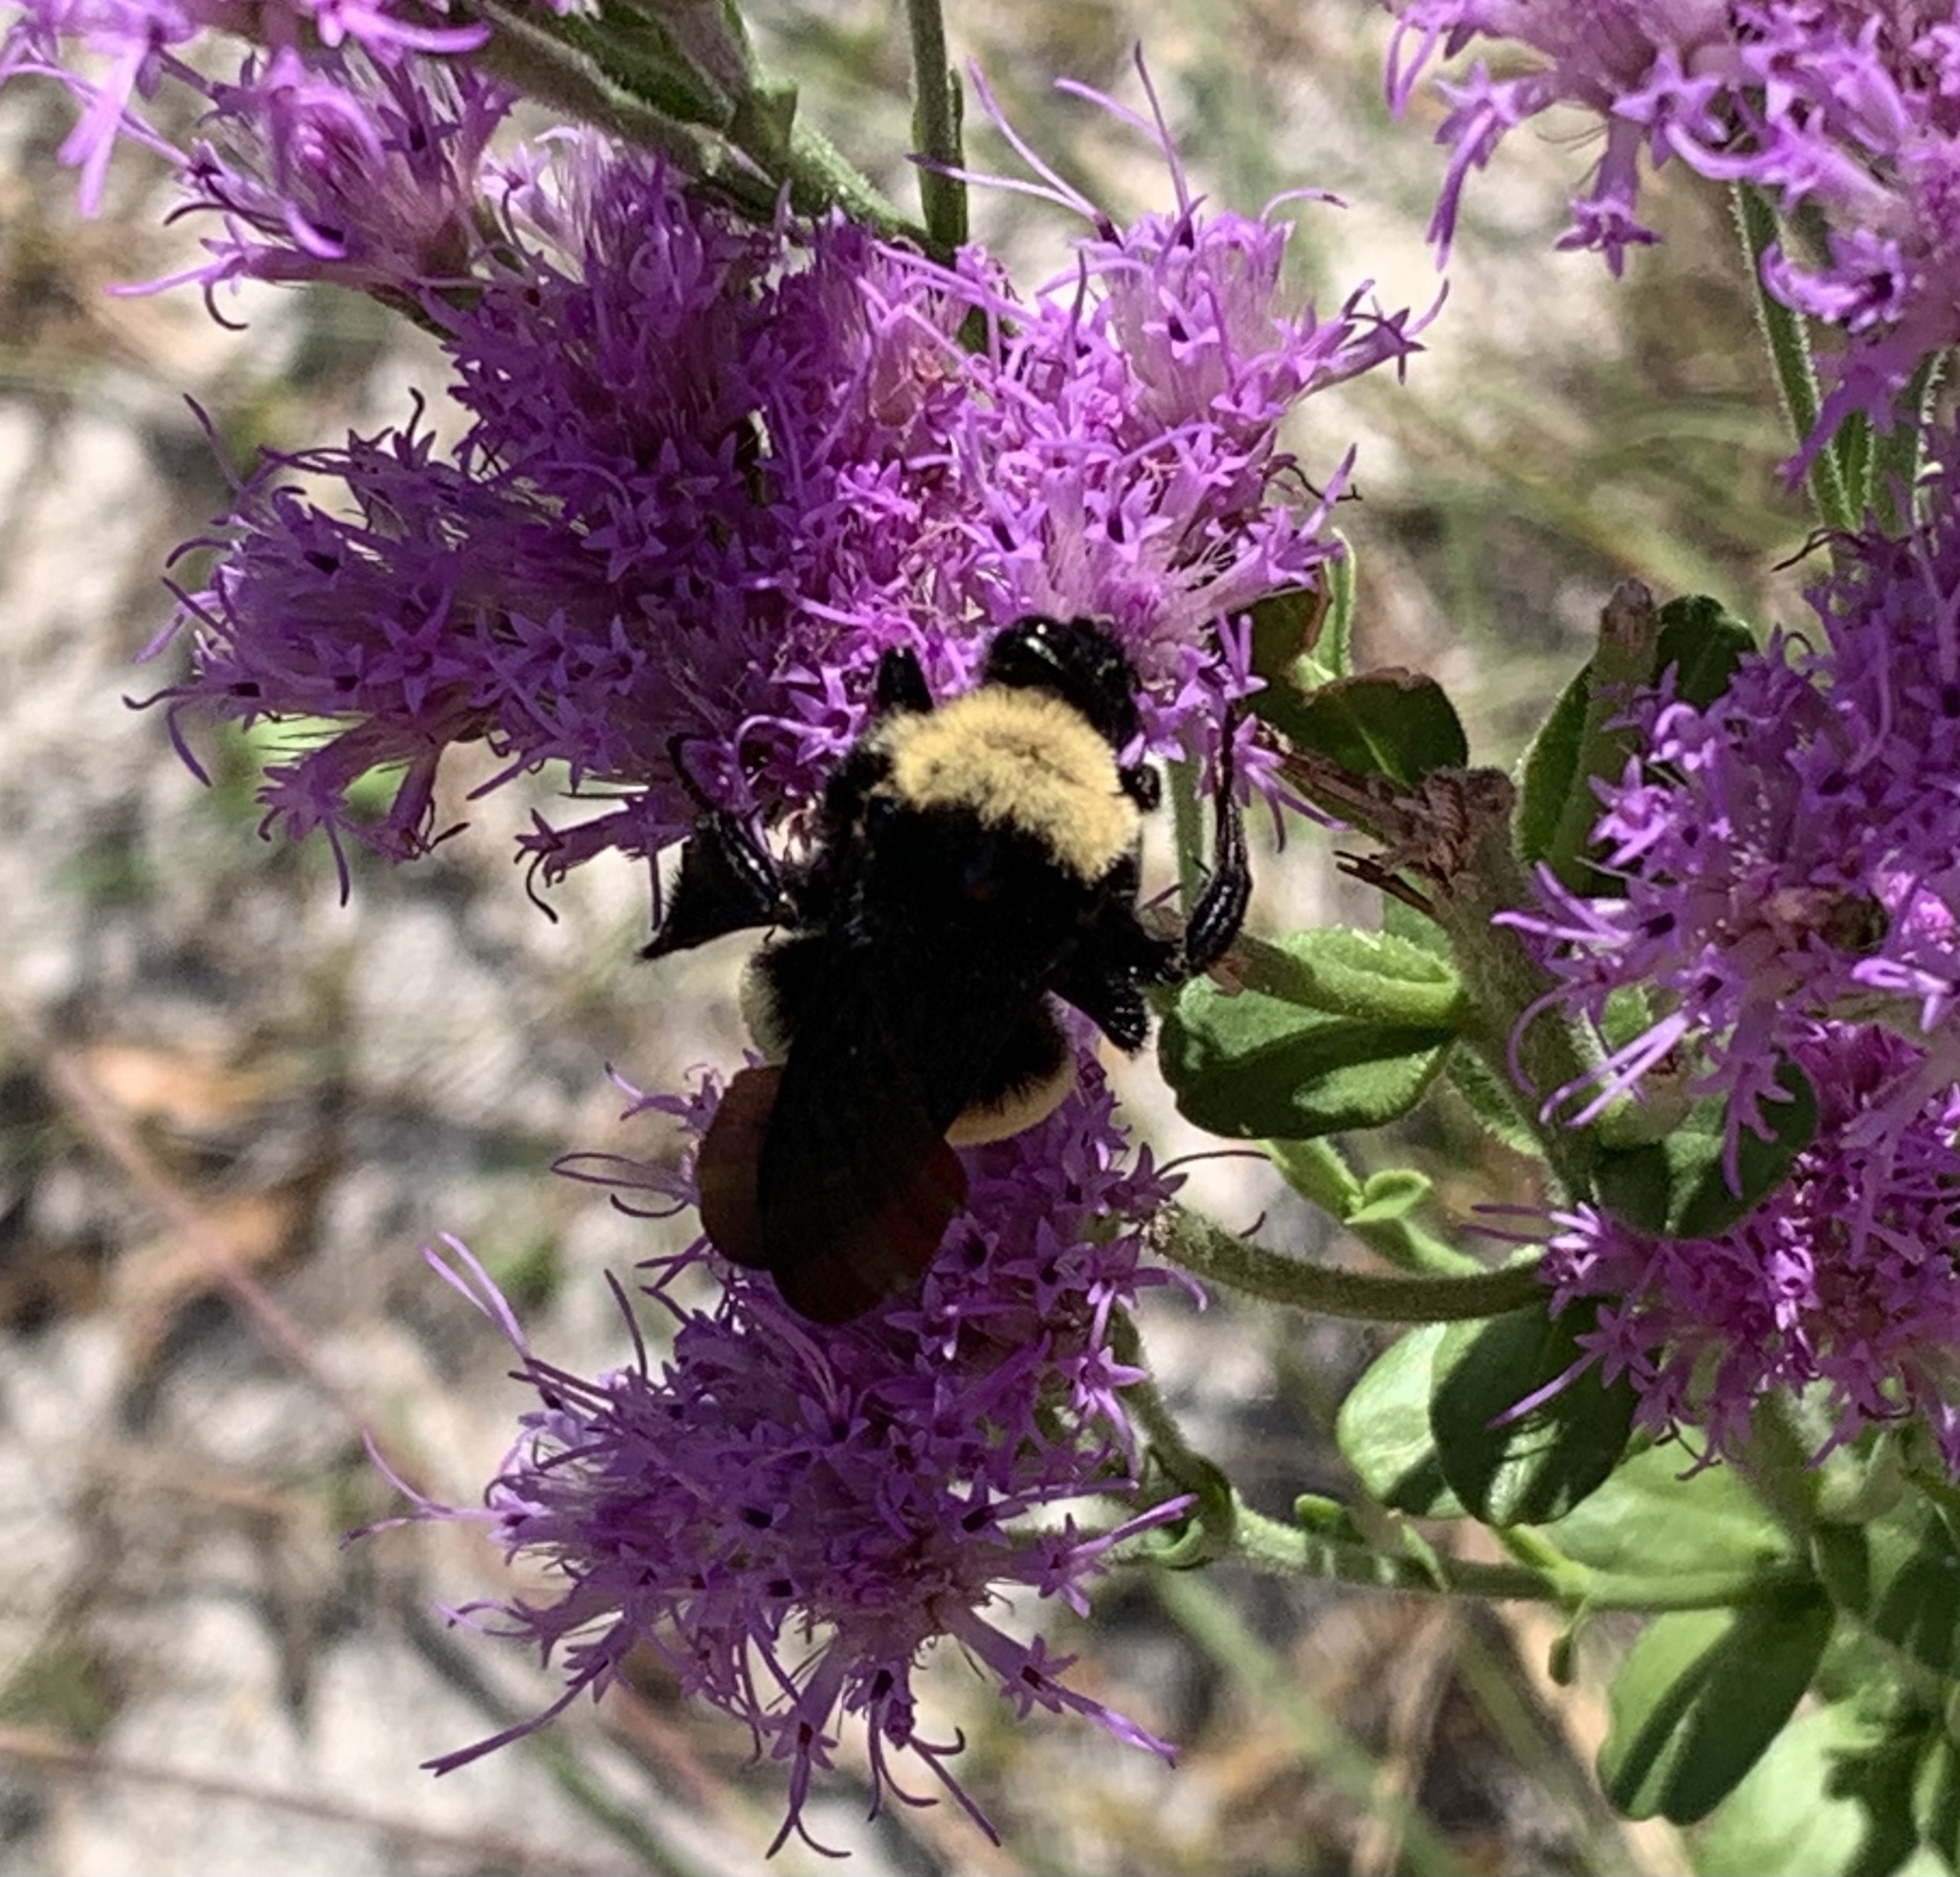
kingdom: Animalia
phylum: Arthropoda
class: Insecta
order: Hymenoptera
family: Apidae
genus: Bombus
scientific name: Bombus pensylvanicus
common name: Bumble bee
